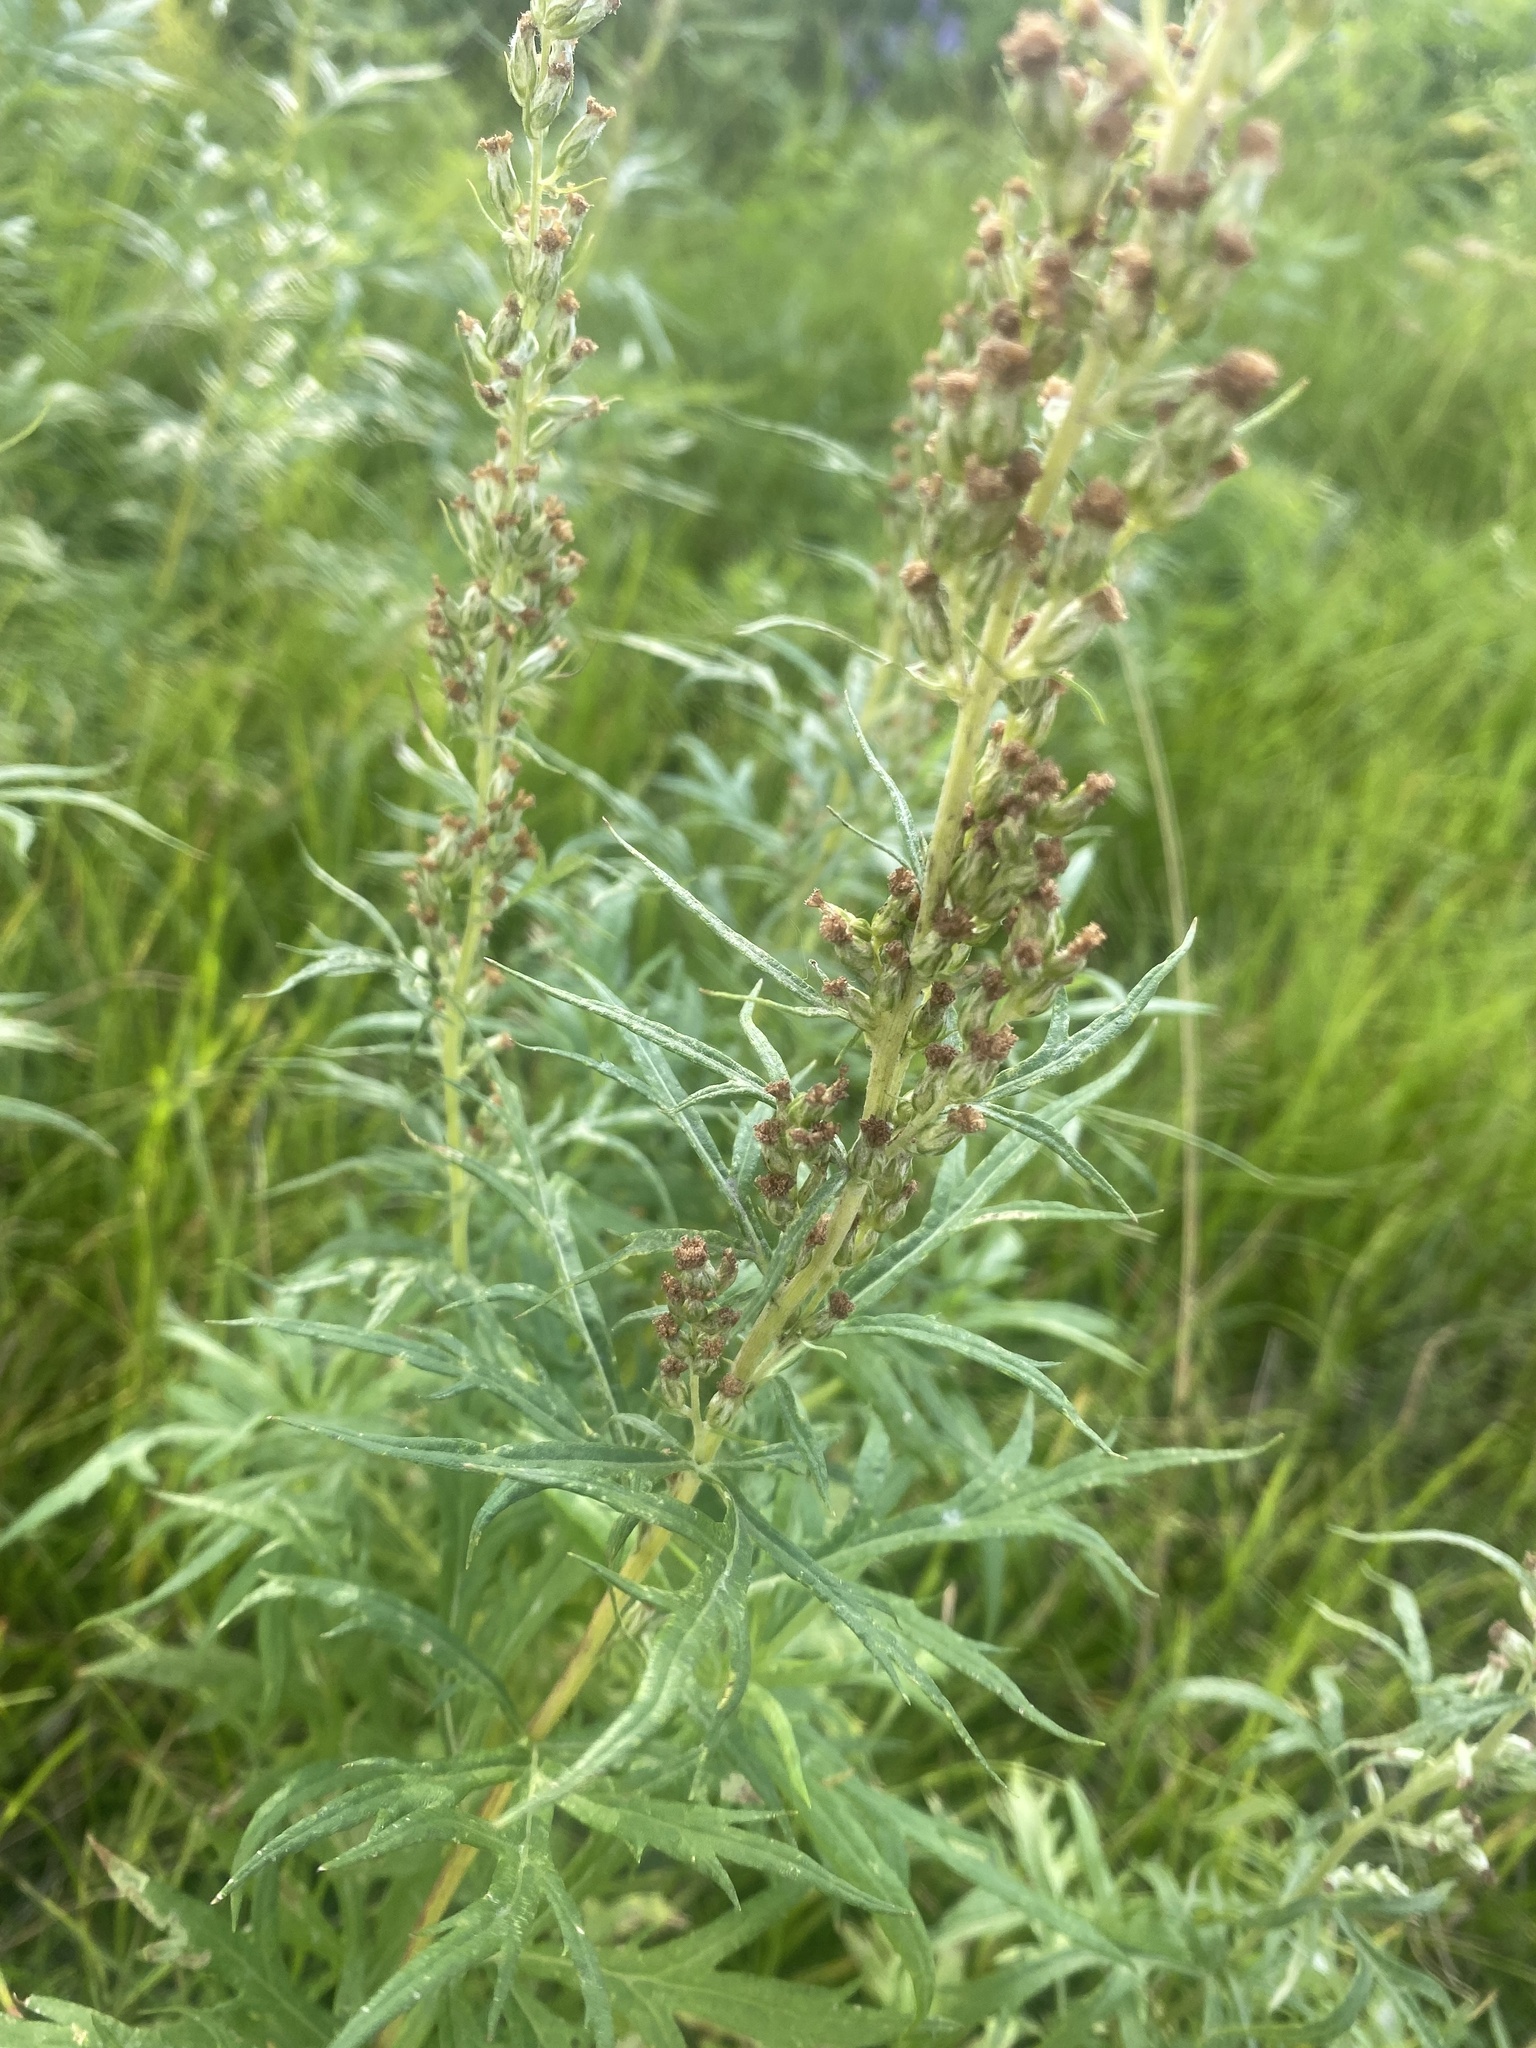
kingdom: Plantae
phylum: Tracheophyta
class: Magnoliopsida
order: Asterales
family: Asteraceae
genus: Artemisia
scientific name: Artemisia vulgaris
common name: Mugwort
